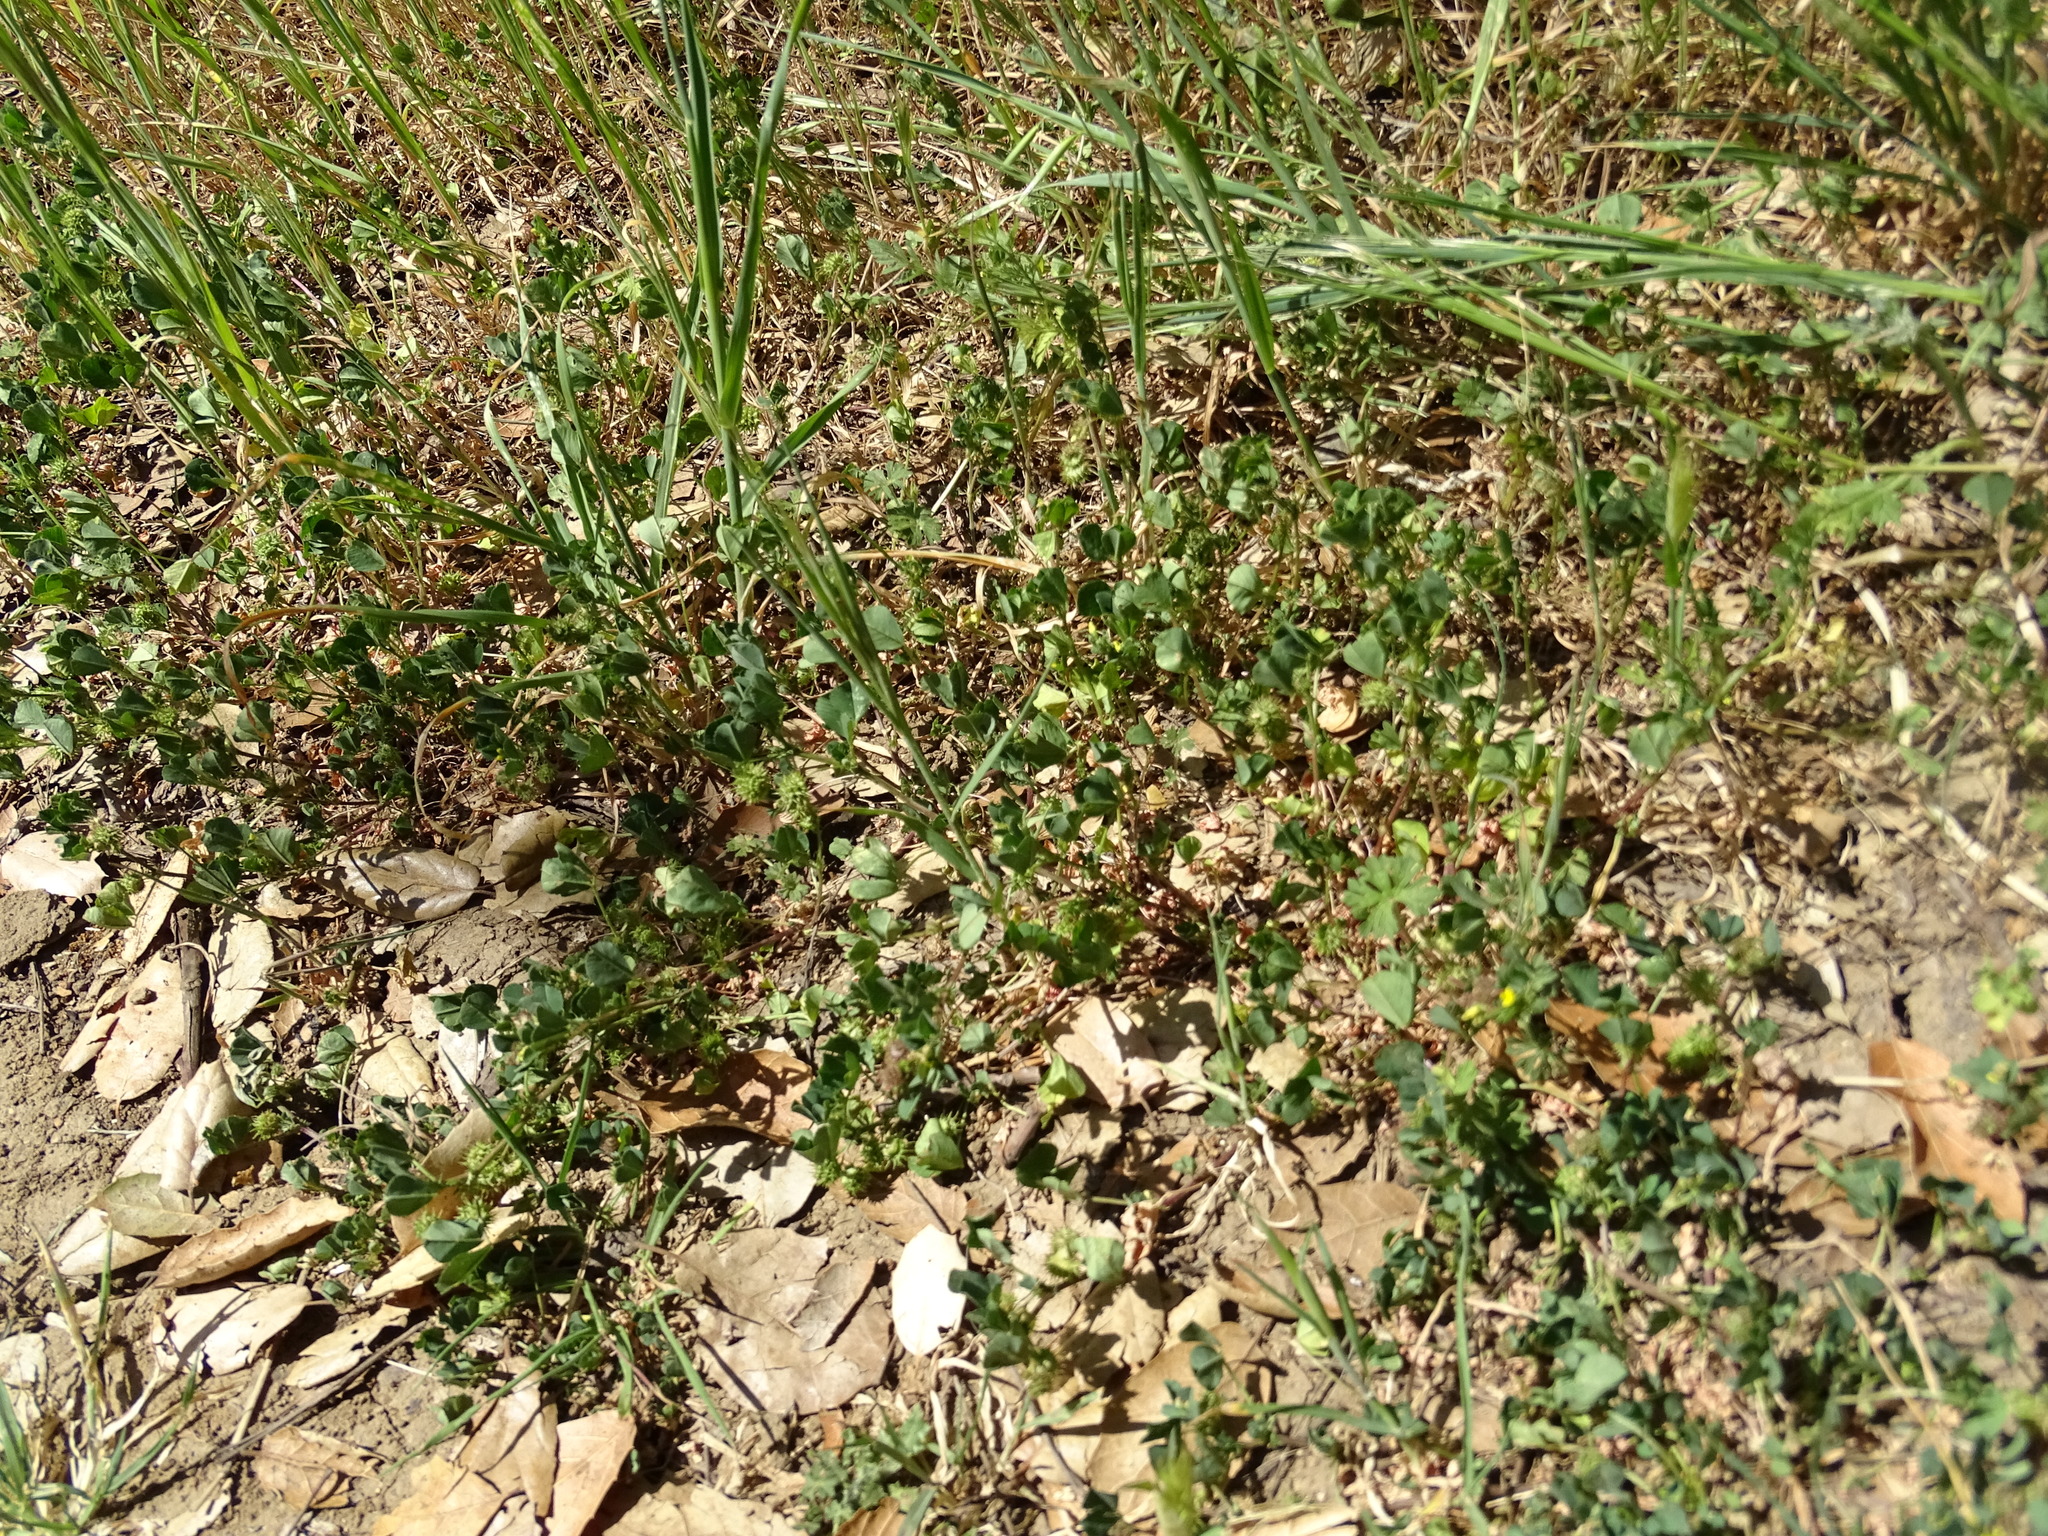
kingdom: Plantae
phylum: Tracheophyta
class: Magnoliopsida
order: Fabales
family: Fabaceae
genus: Medicago
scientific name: Medicago polymorpha
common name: Burclover
